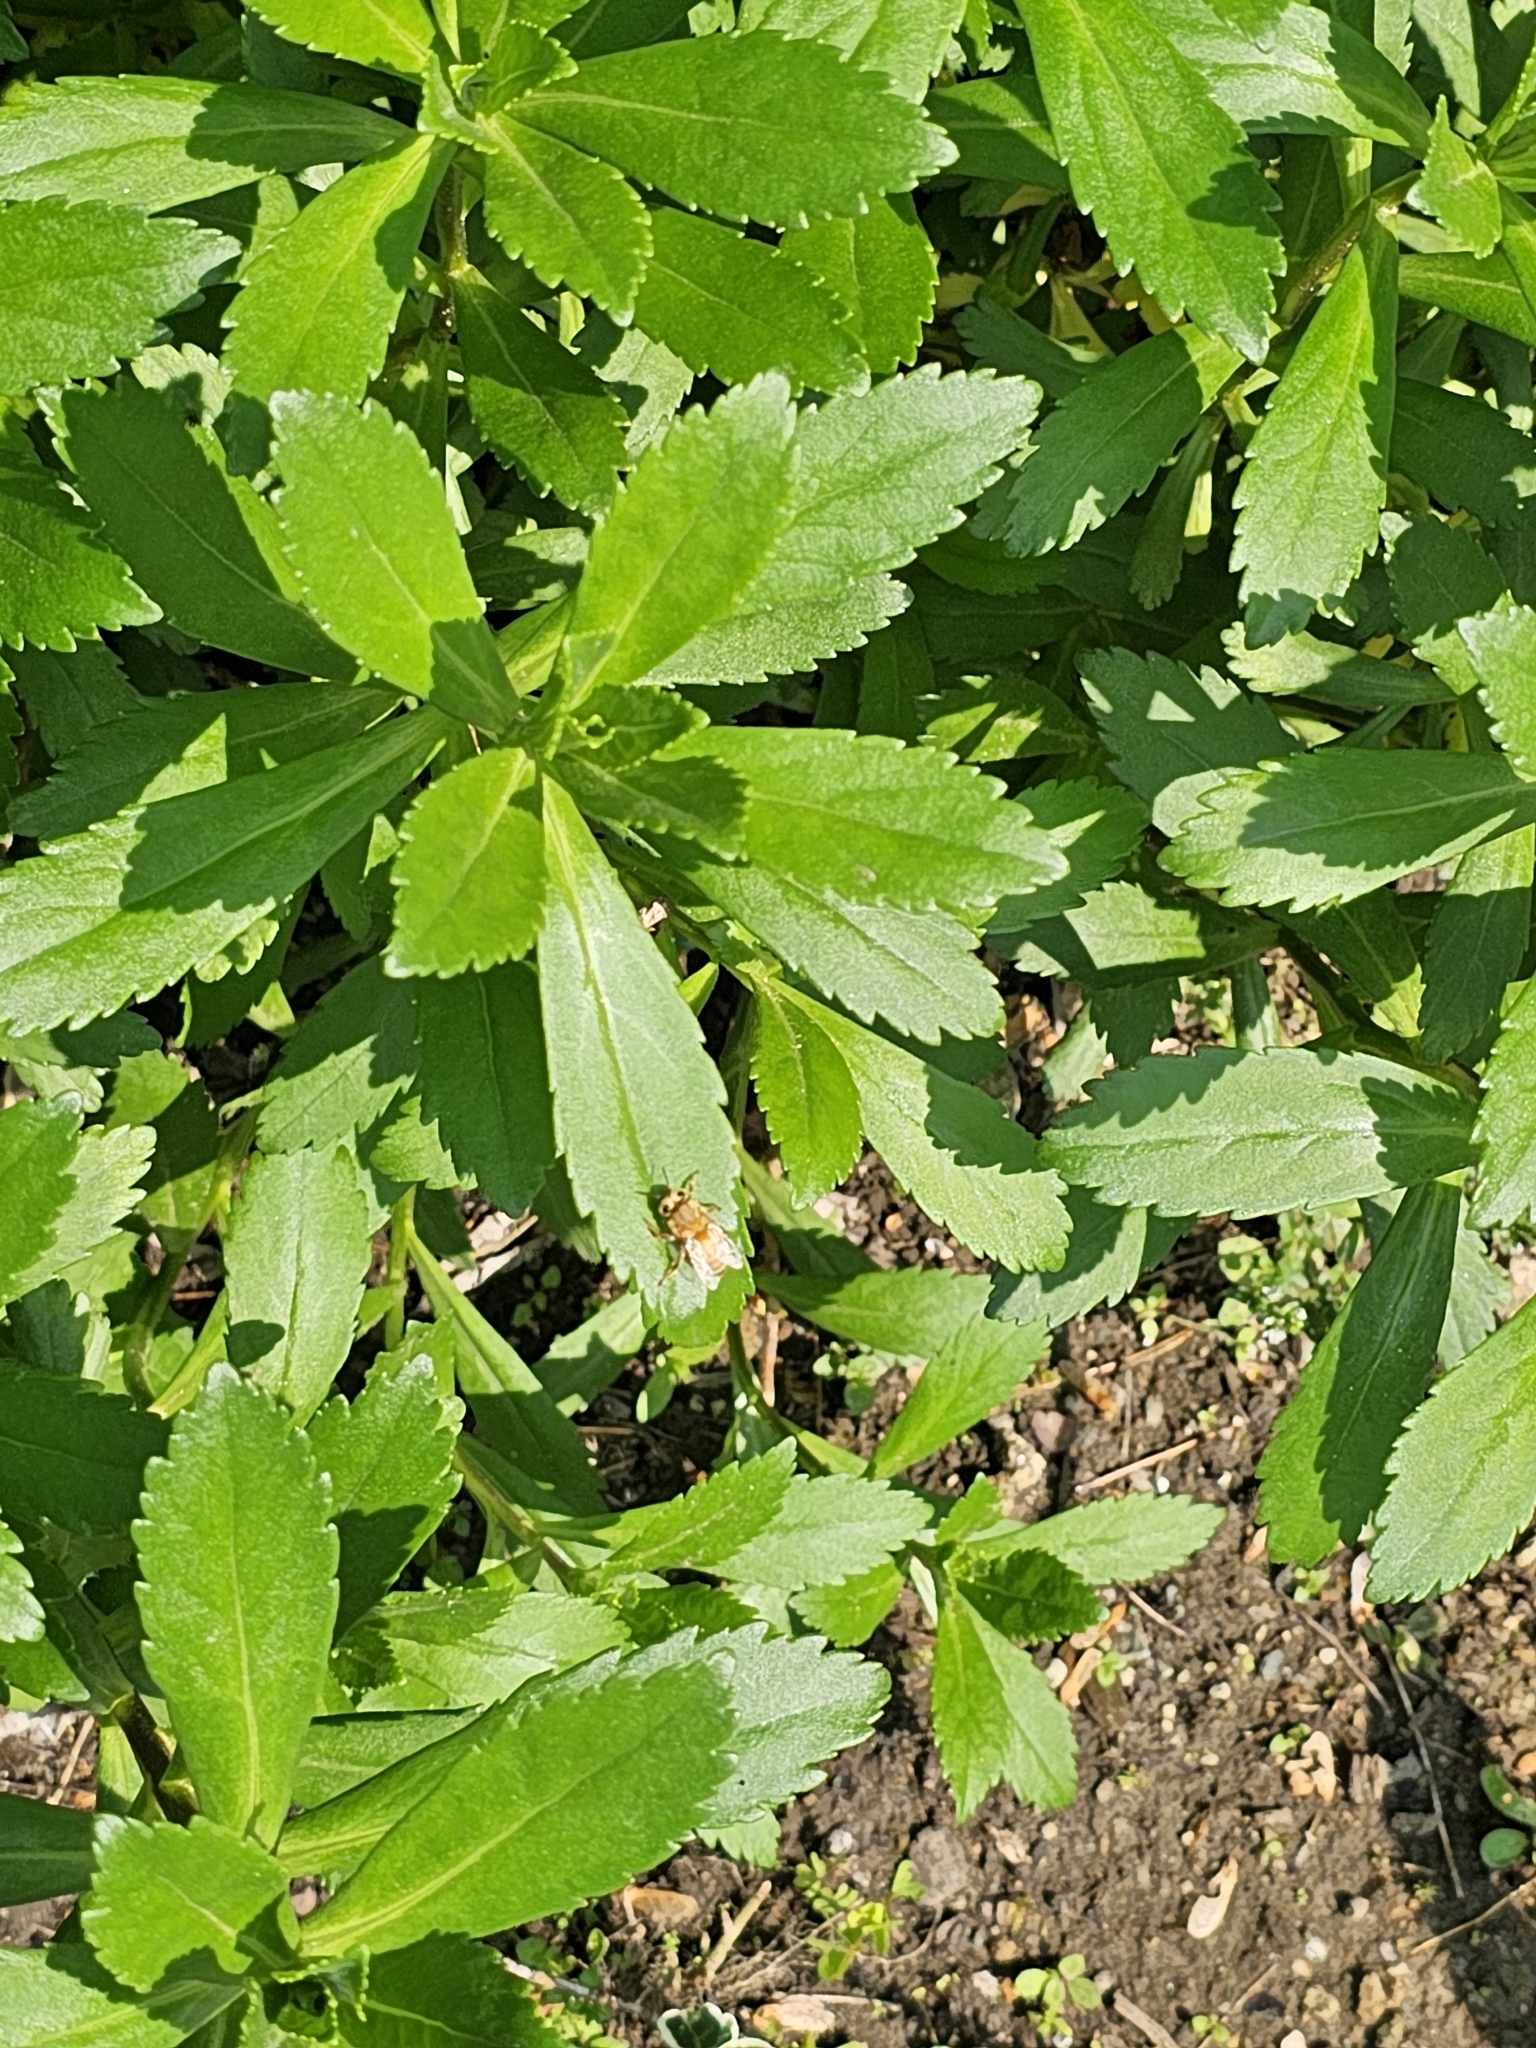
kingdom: Animalia
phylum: Arthropoda
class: Insecta
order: Diptera
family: Asilidae
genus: Dioctria
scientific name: Dioctria hyalipennis
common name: Stripe-legged robberfly
